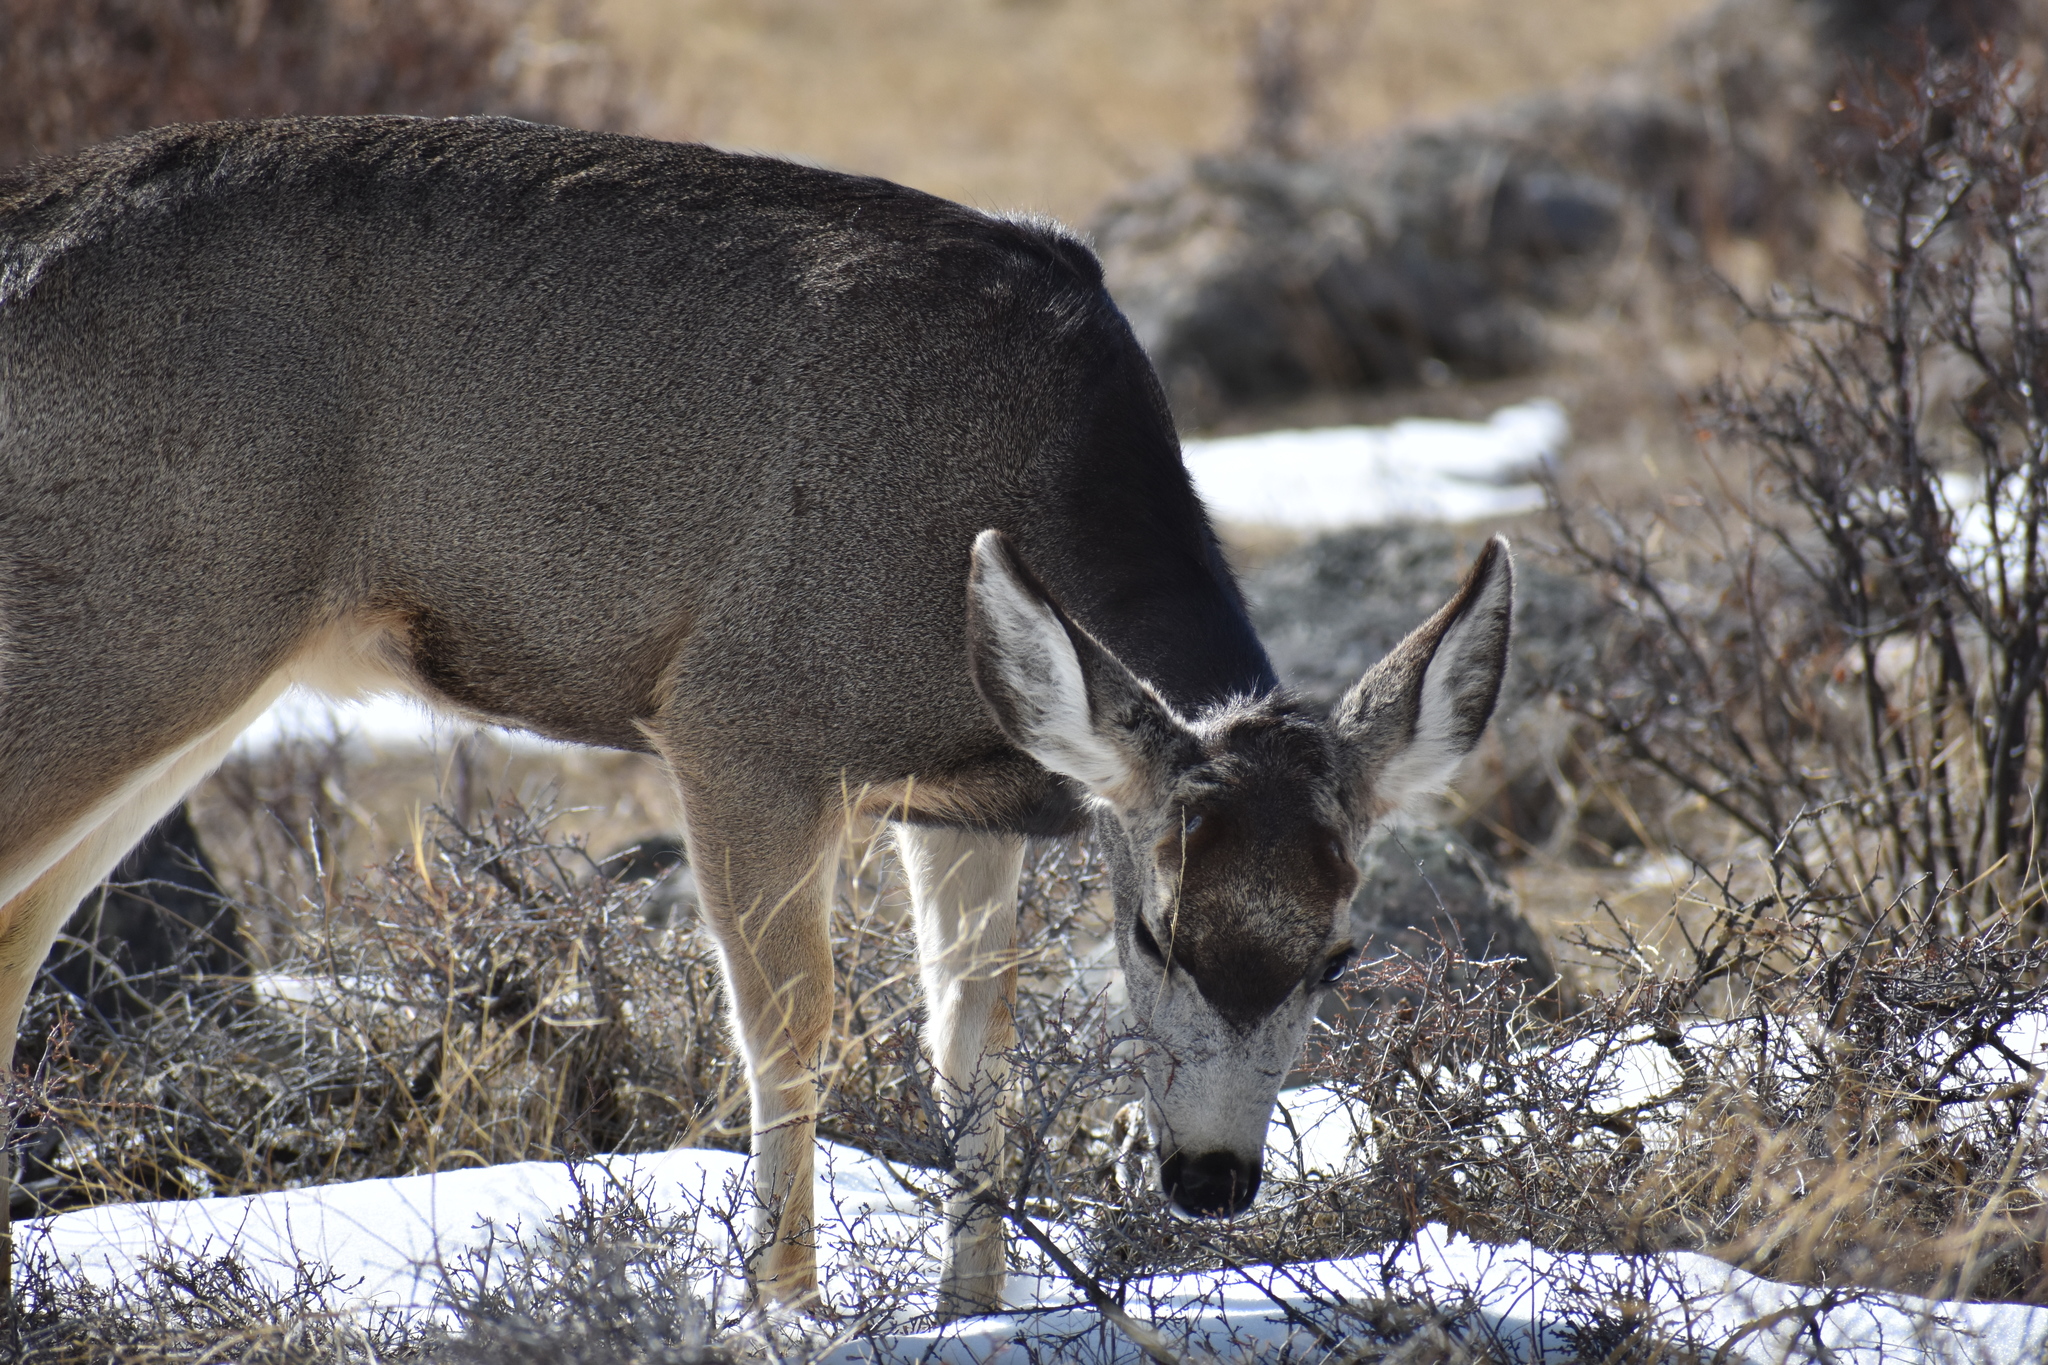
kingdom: Animalia
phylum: Chordata
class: Mammalia
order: Artiodactyla
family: Cervidae
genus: Odocoileus
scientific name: Odocoileus hemionus
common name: Mule deer
